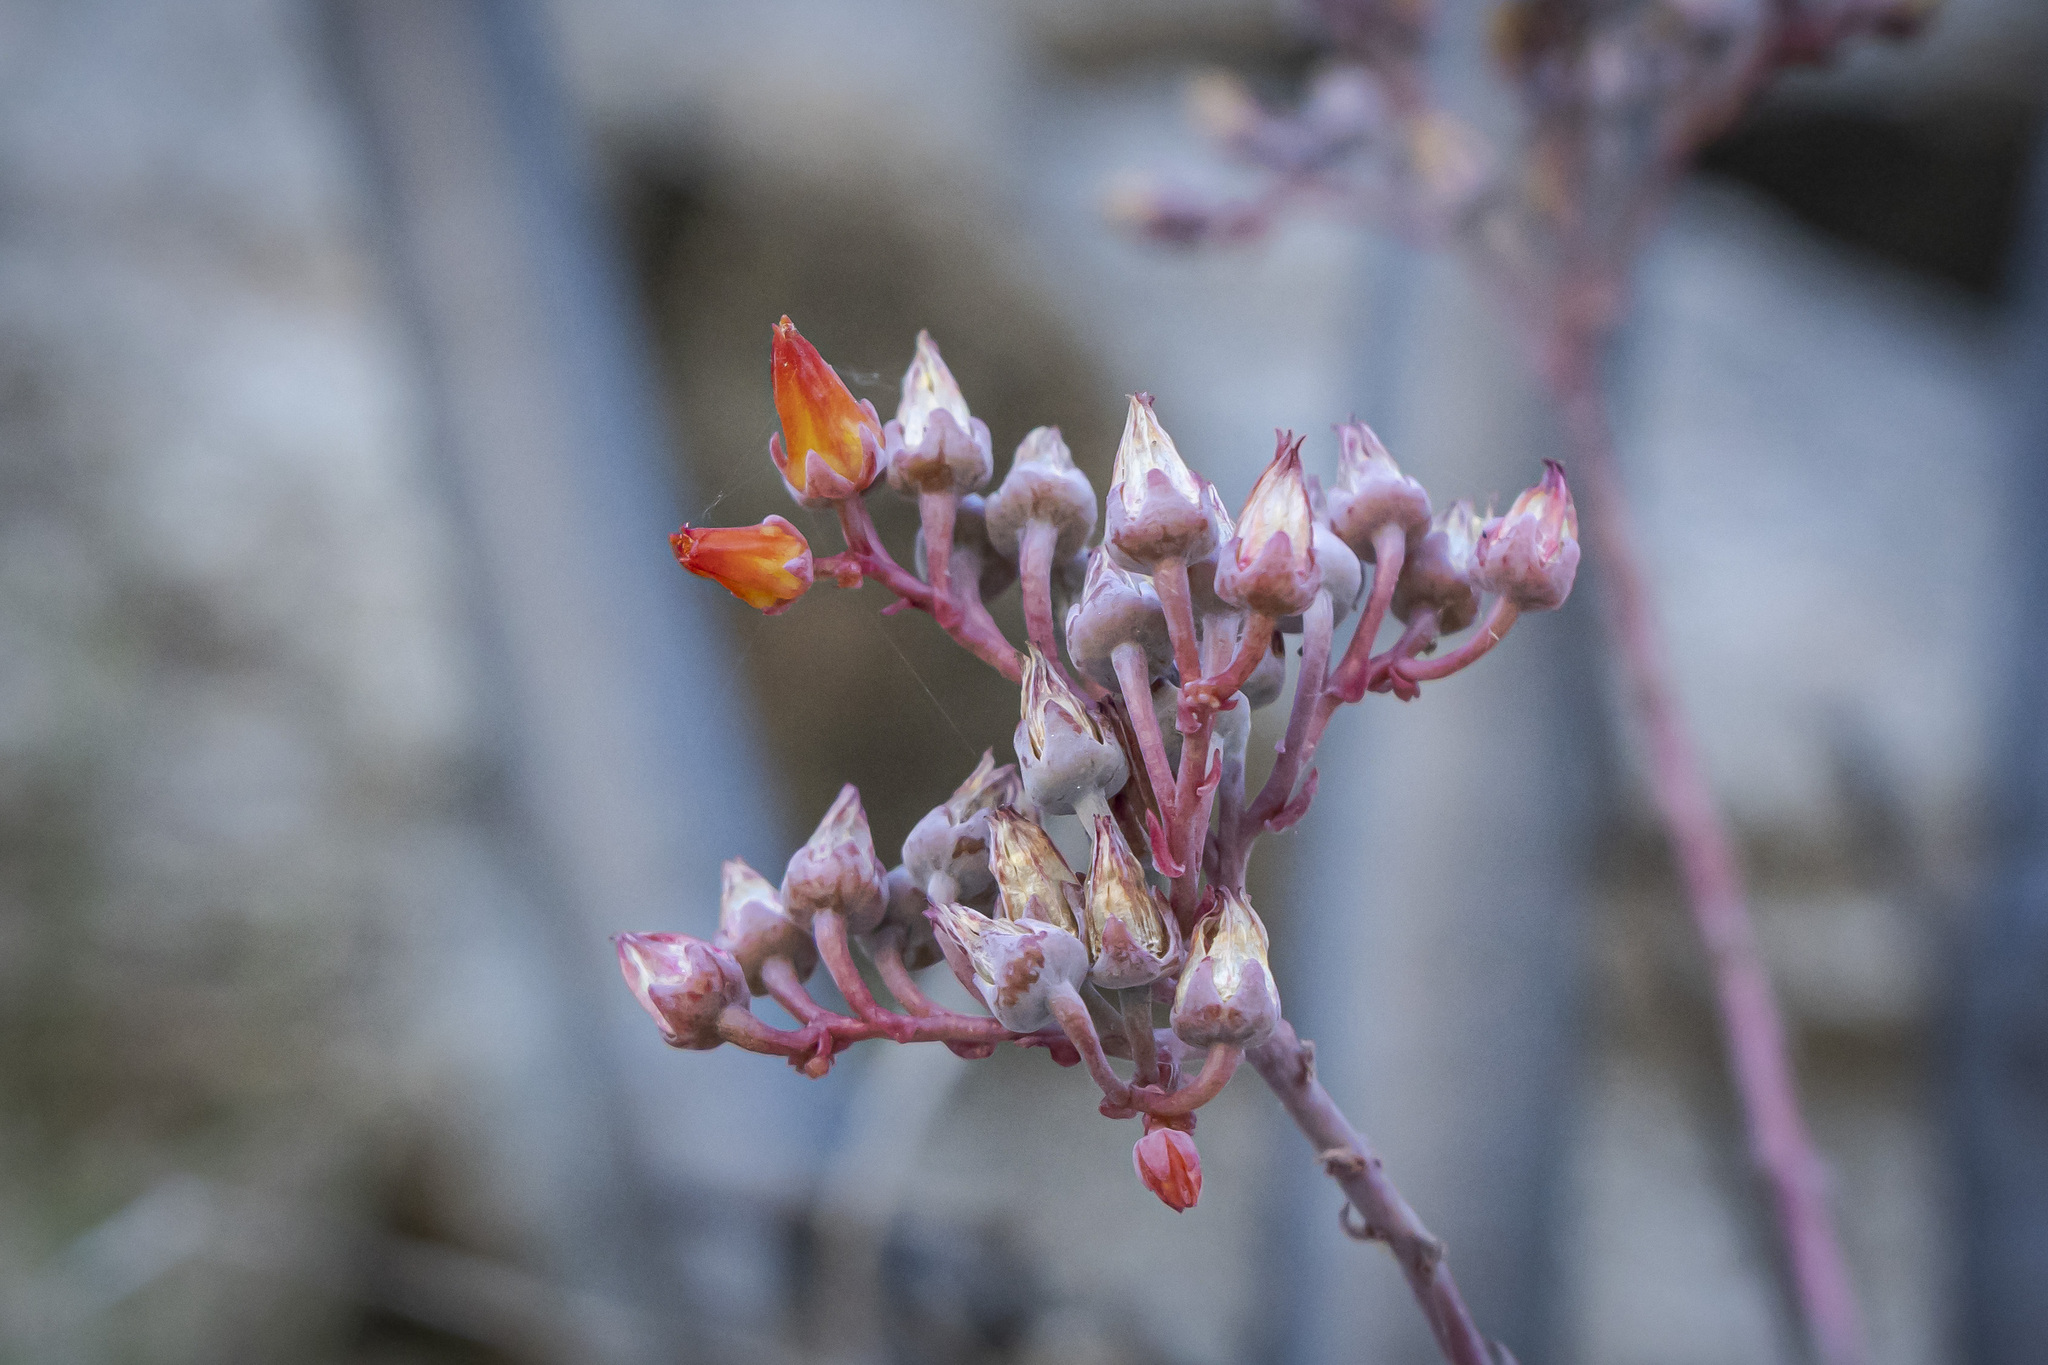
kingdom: Plantae
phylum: Tracheophyta
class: Magnoliopsida
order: Saxifragales
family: Crassulaceae
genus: Dudleya
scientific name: Dudleya nubigena
